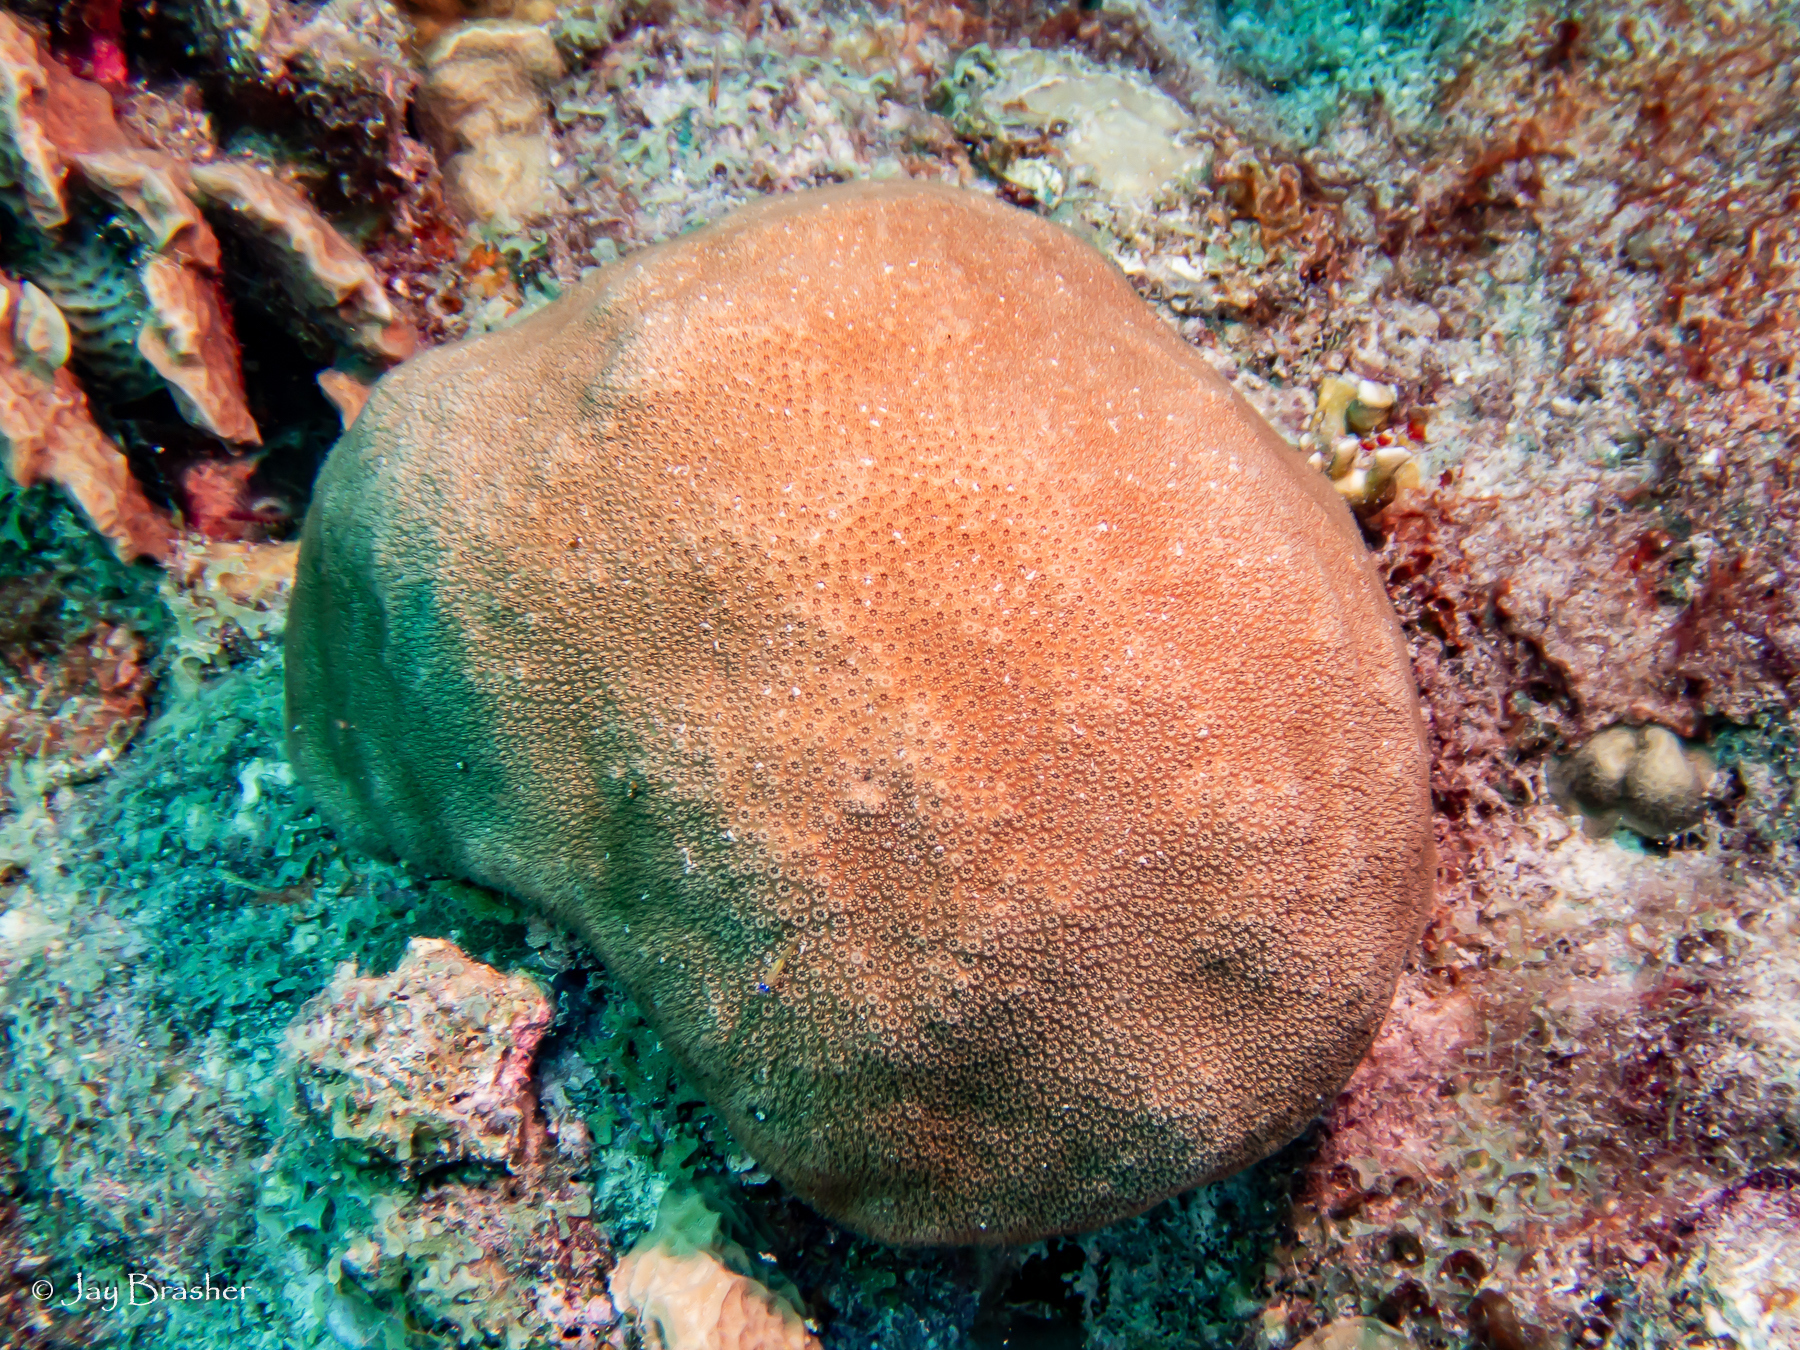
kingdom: Animalia
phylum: Cnidaria
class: Anthozoa
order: Scleractinia
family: Astrocoeniidae
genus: Stephanocoenia
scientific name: Stephanocoenia intersepta
